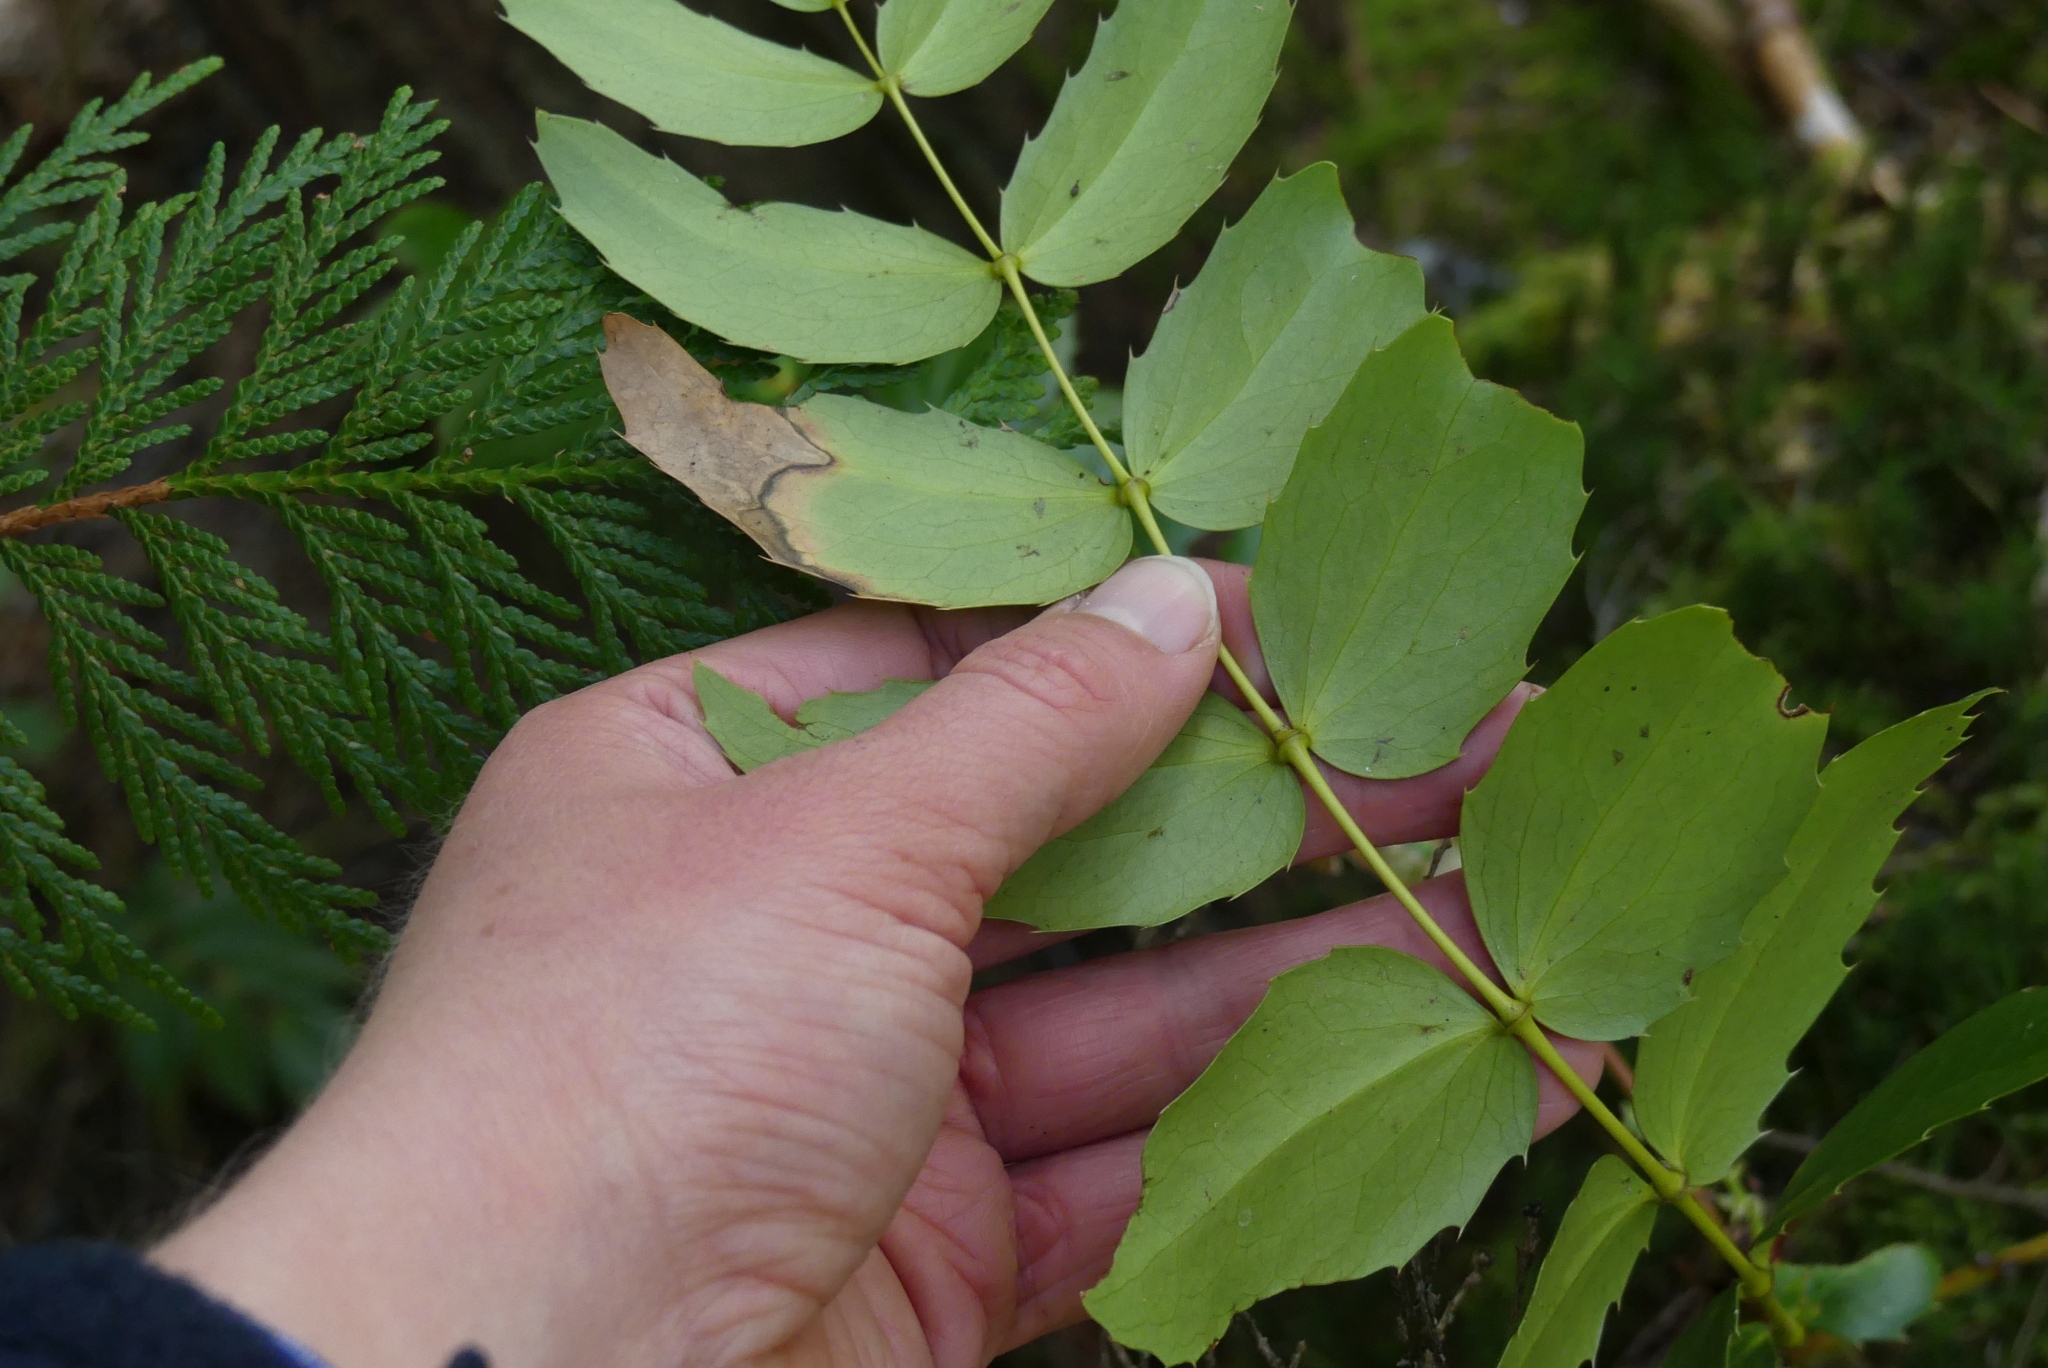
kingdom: Plantae
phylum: Tracheophyta
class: Magnoliopsida
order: Ranunculales
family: Berberidaceae
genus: Mahonia
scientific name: Mahonia nervosa
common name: Cascade oregon-grape
